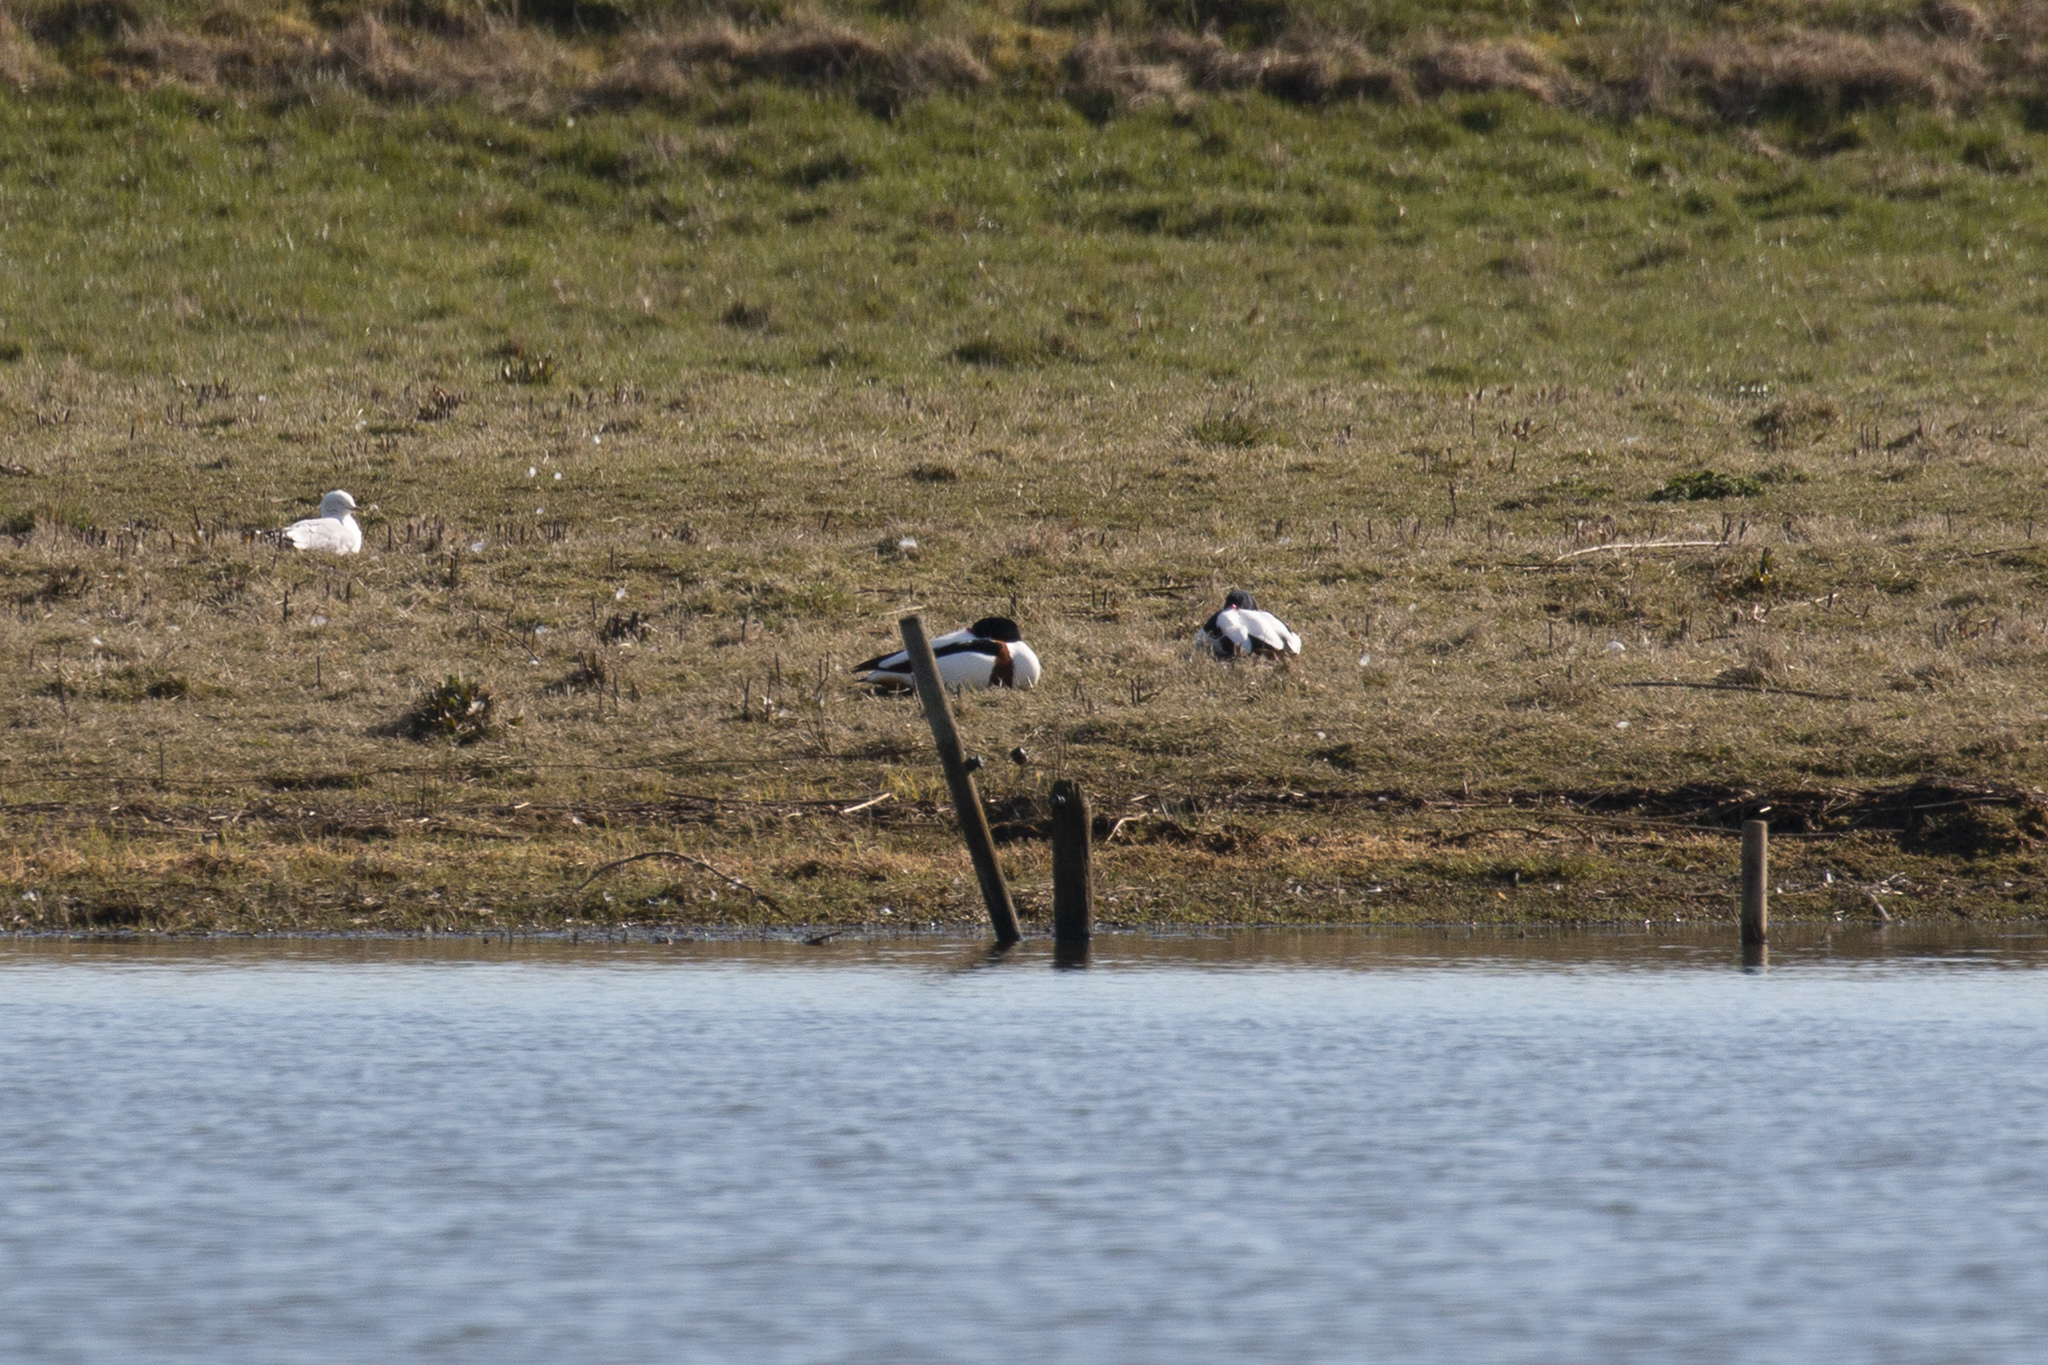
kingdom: Animalia
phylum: Chordata
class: Aves
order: Anseriformes
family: Anatidae
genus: Tadorna
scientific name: Tadorna tadorna
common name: Common shelduck
